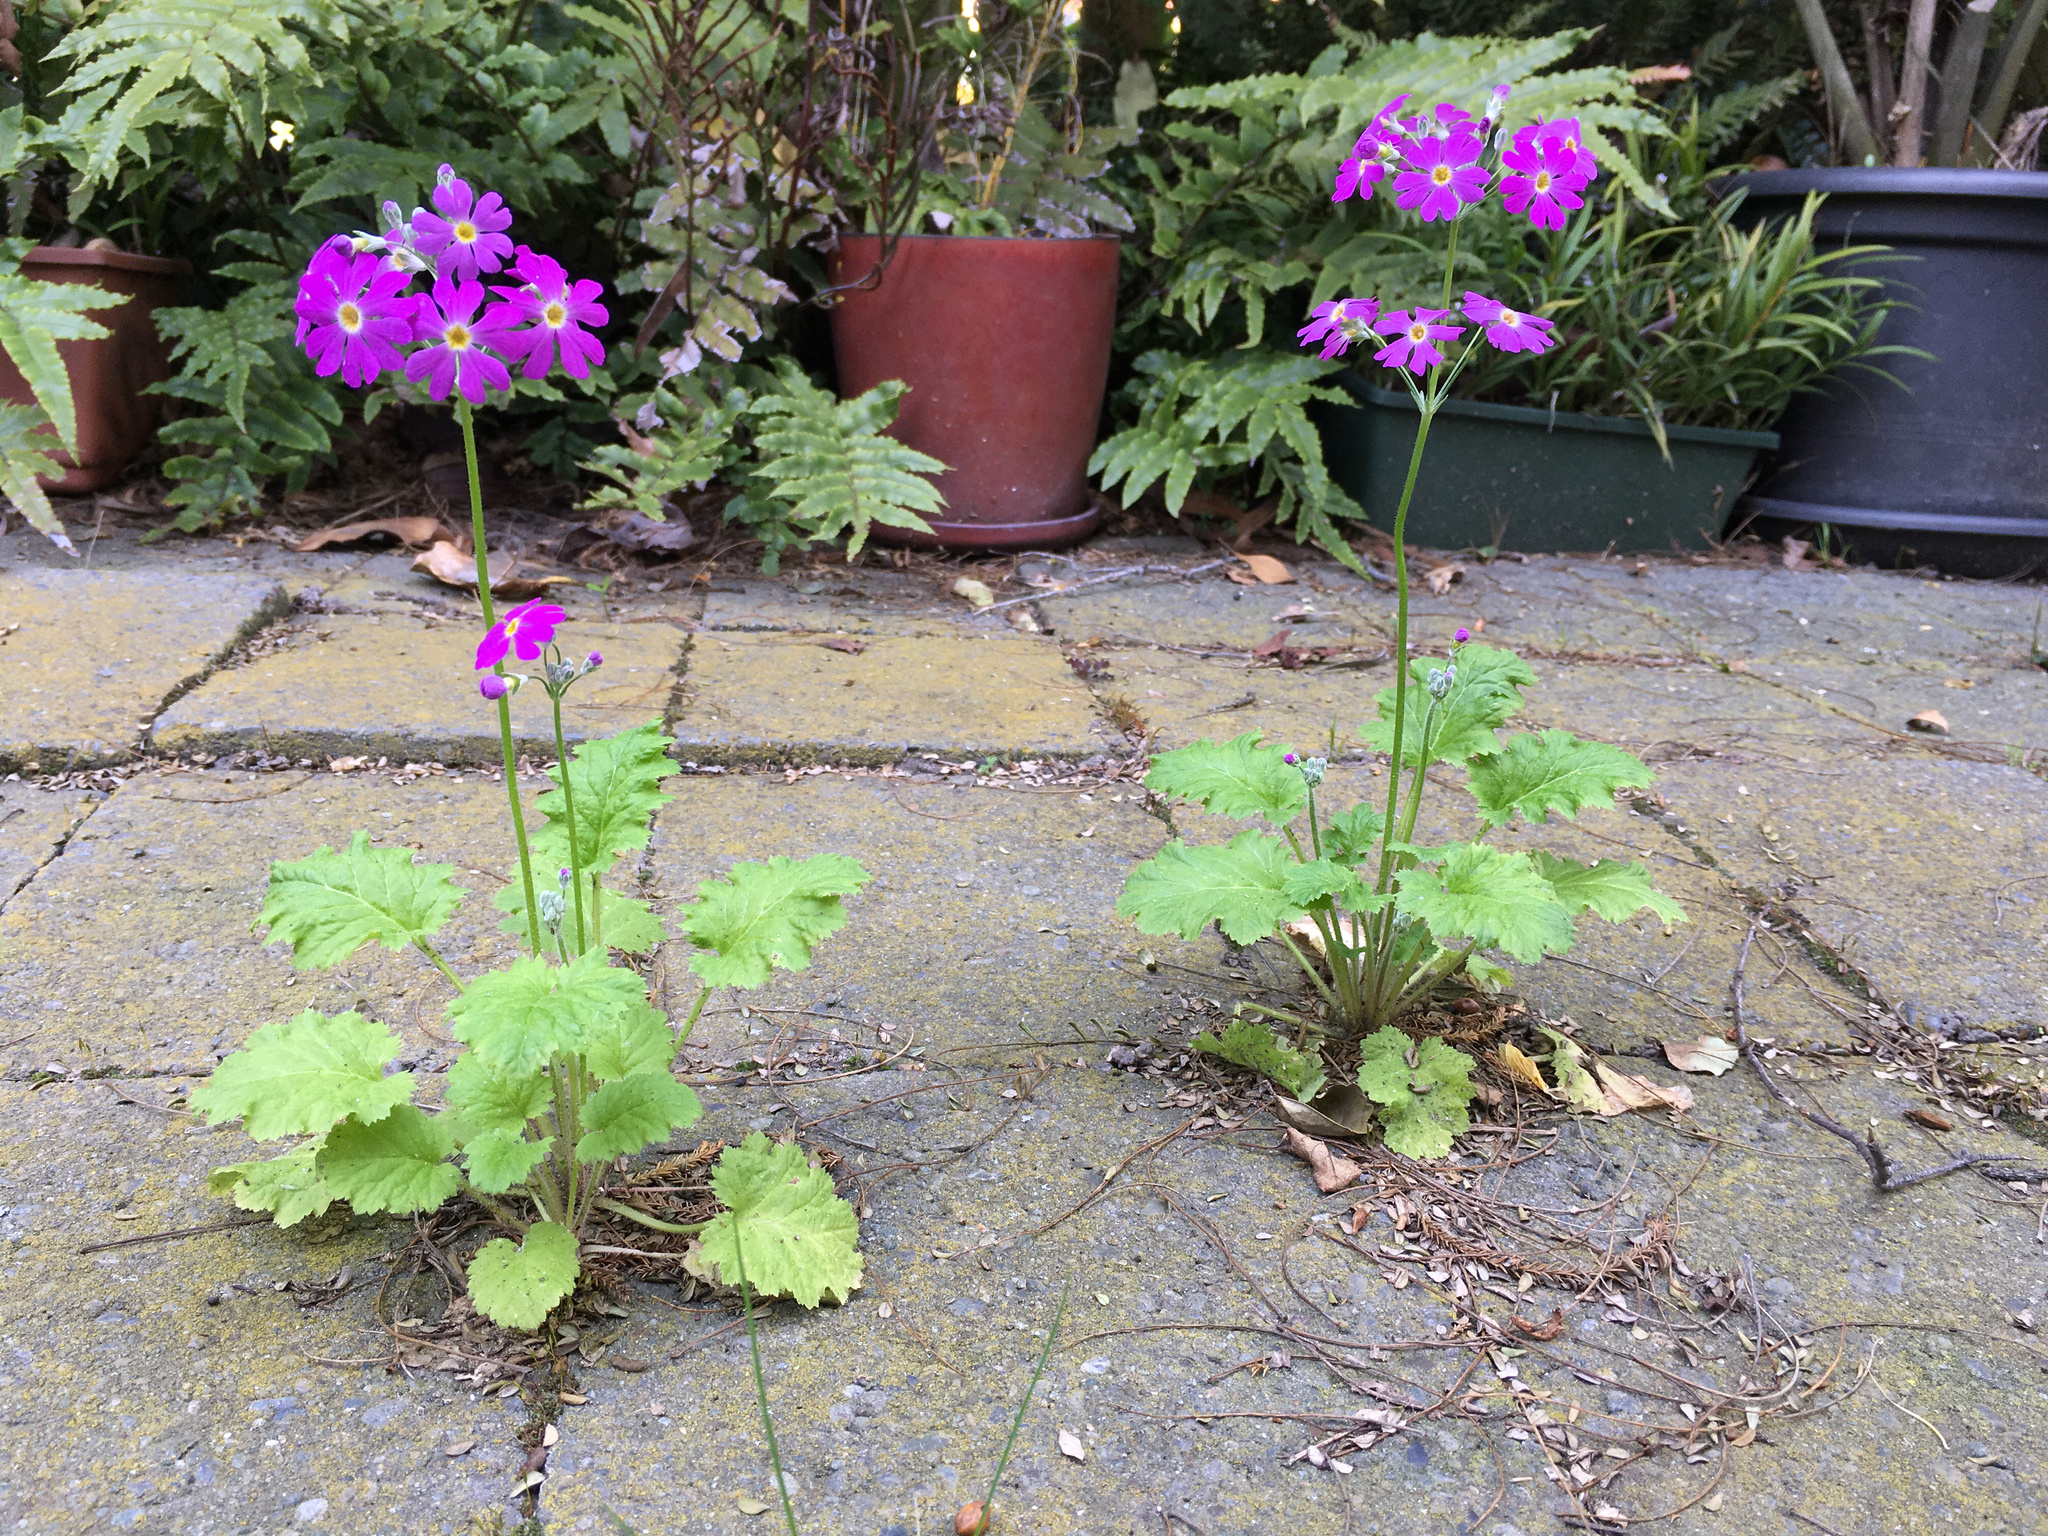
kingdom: Plantae
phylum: Tracheophyta
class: Magnoliopsida
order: Ericales
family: Primulaceae
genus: Primula
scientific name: Primula malacoides
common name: Baby primrose
